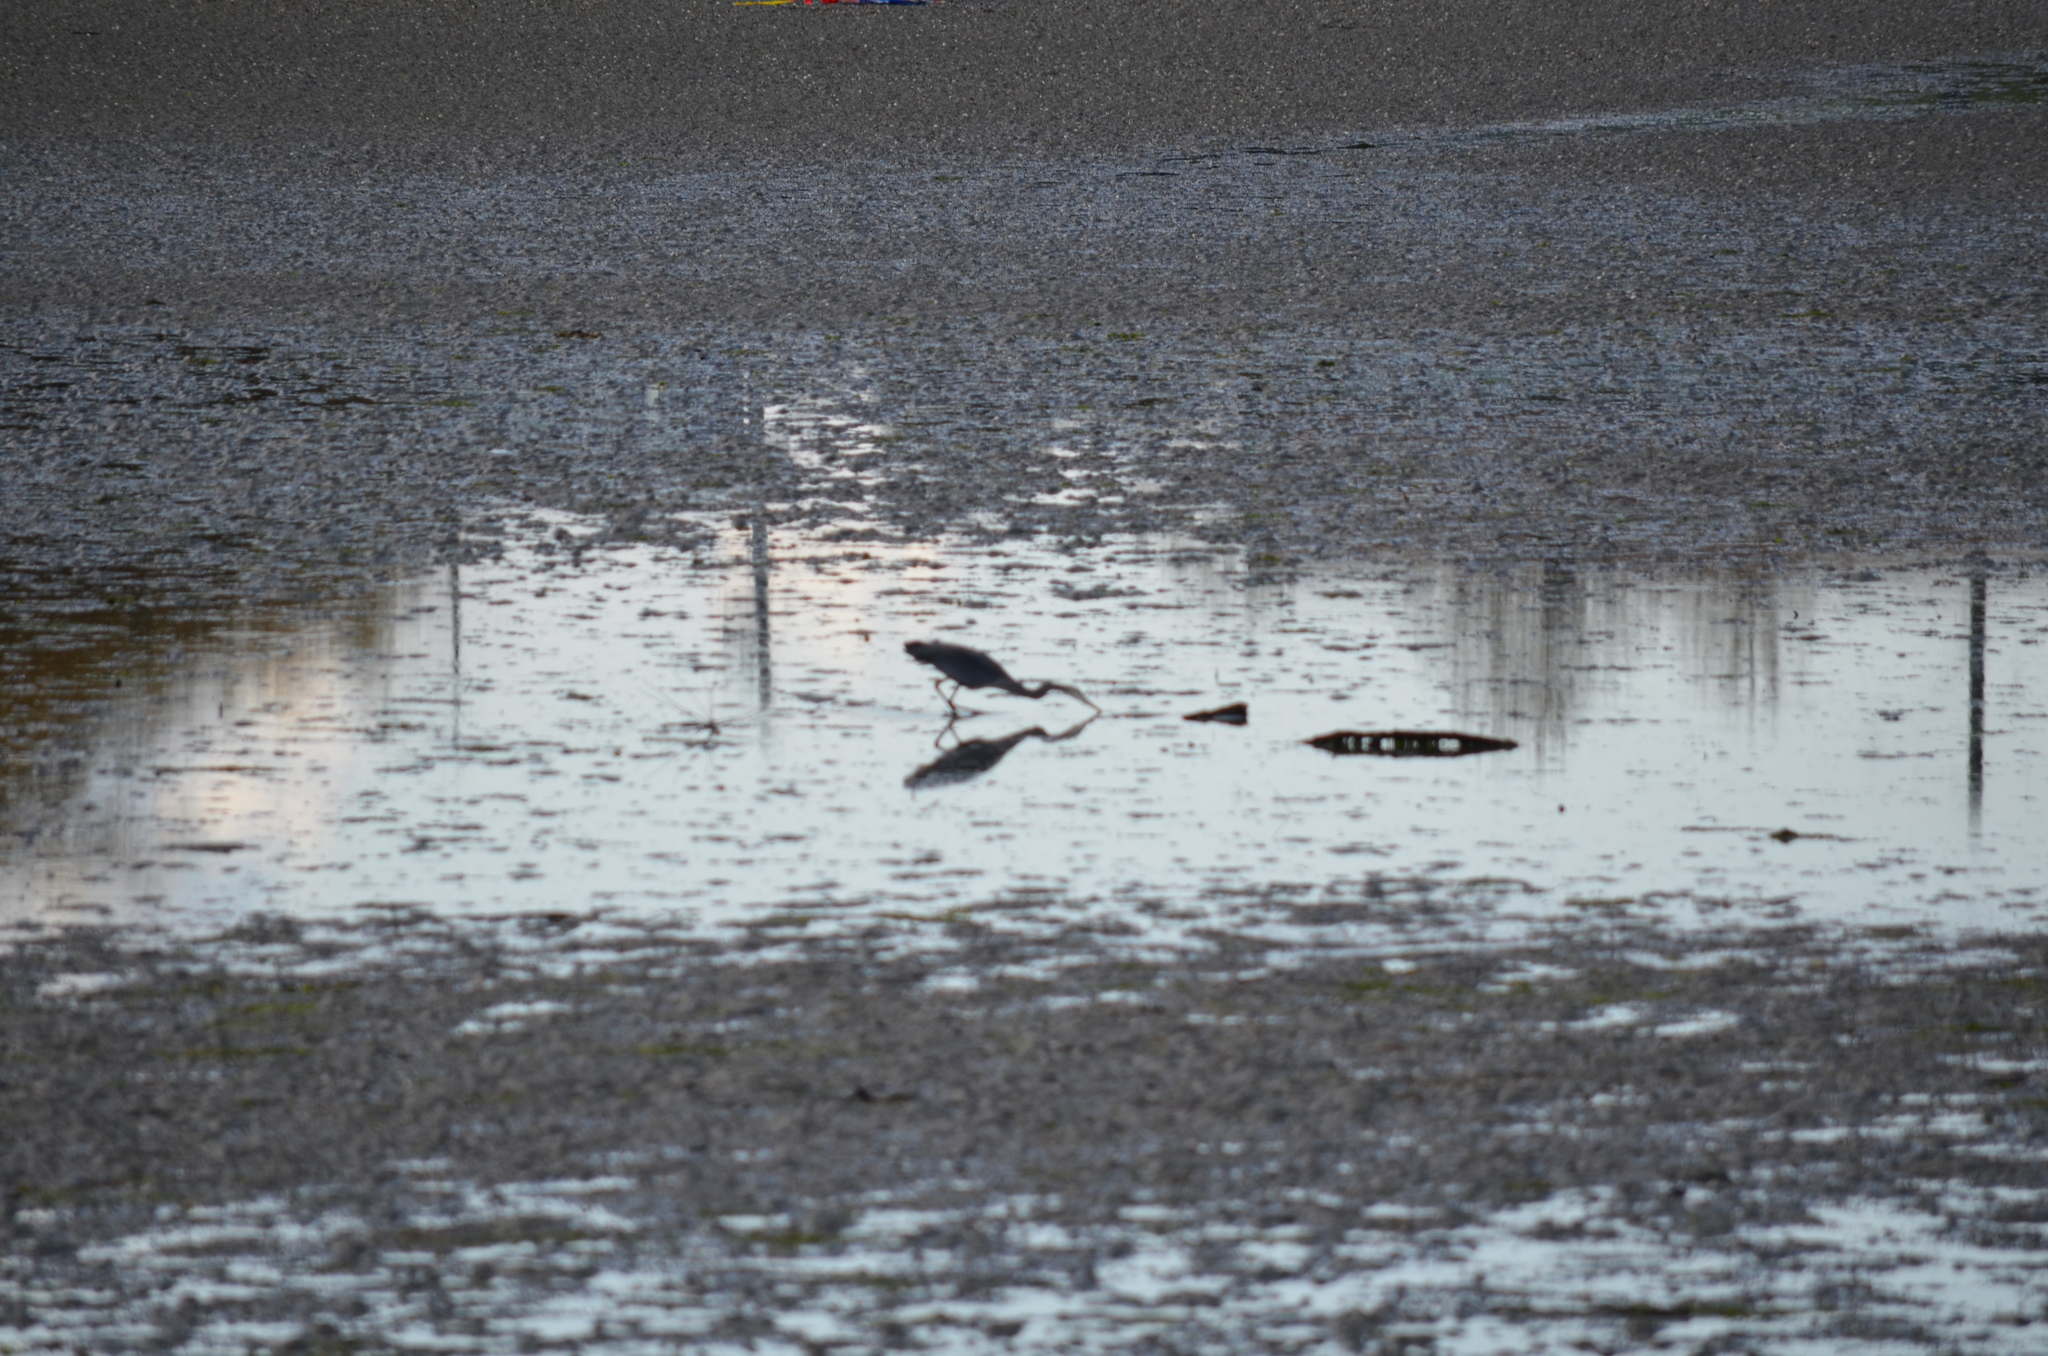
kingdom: Animalia
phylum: Chordata
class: Aves
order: Pelecaniformes
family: Ardeidae
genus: Ardea
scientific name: Ardea herodias
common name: Great blue heron
